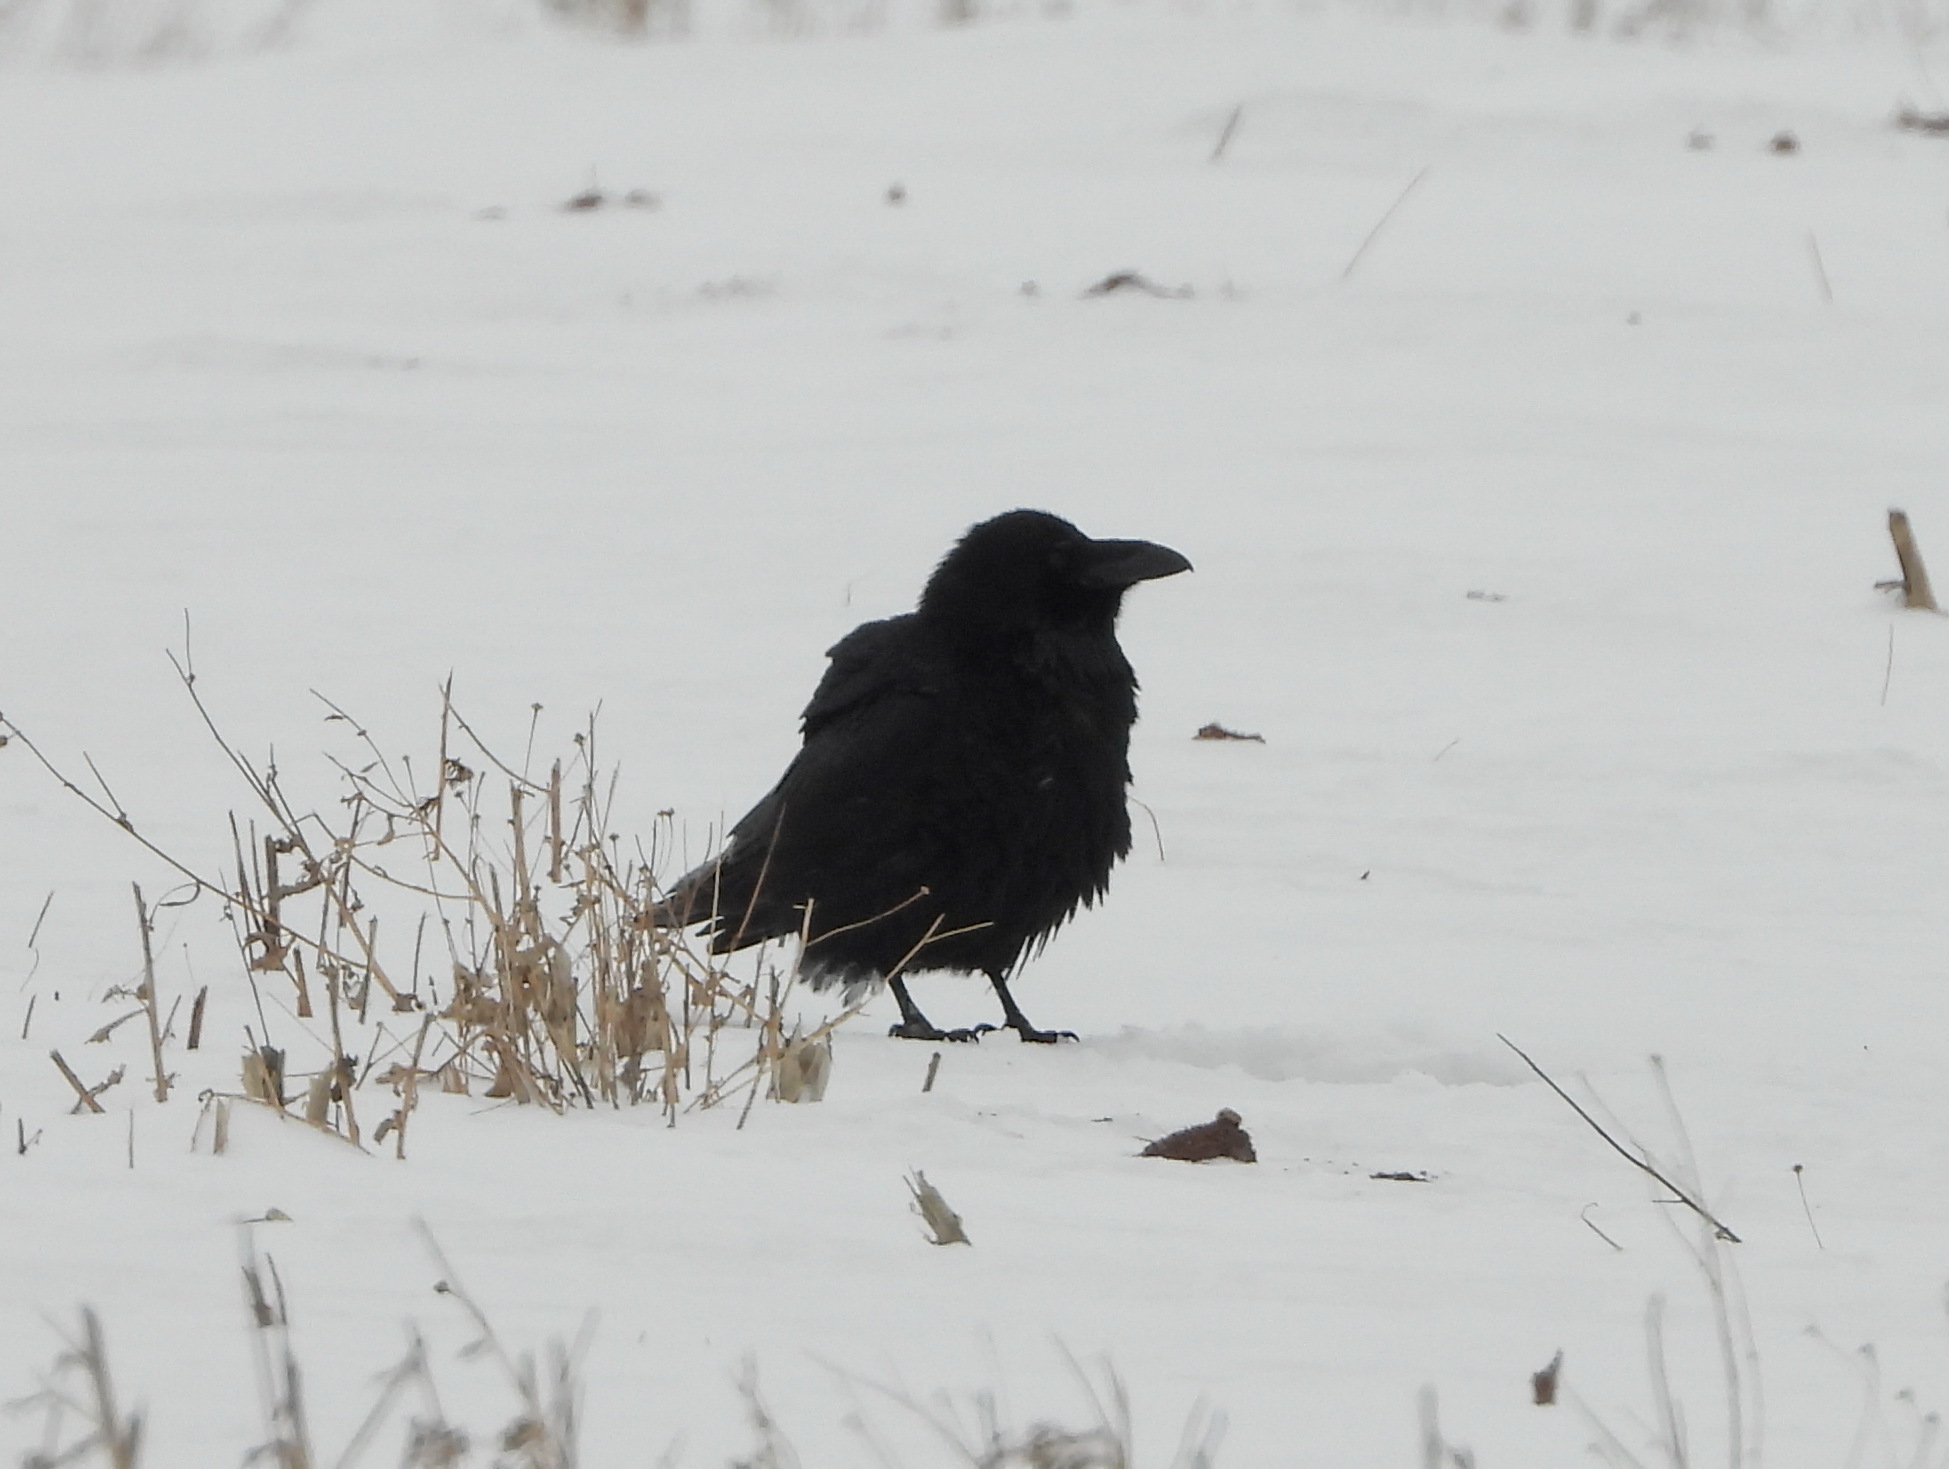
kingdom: Animalia
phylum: Chordata
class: Aves
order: Passeriformes
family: Corvidae
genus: Corvus
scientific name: Corvus corax
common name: Common raven
